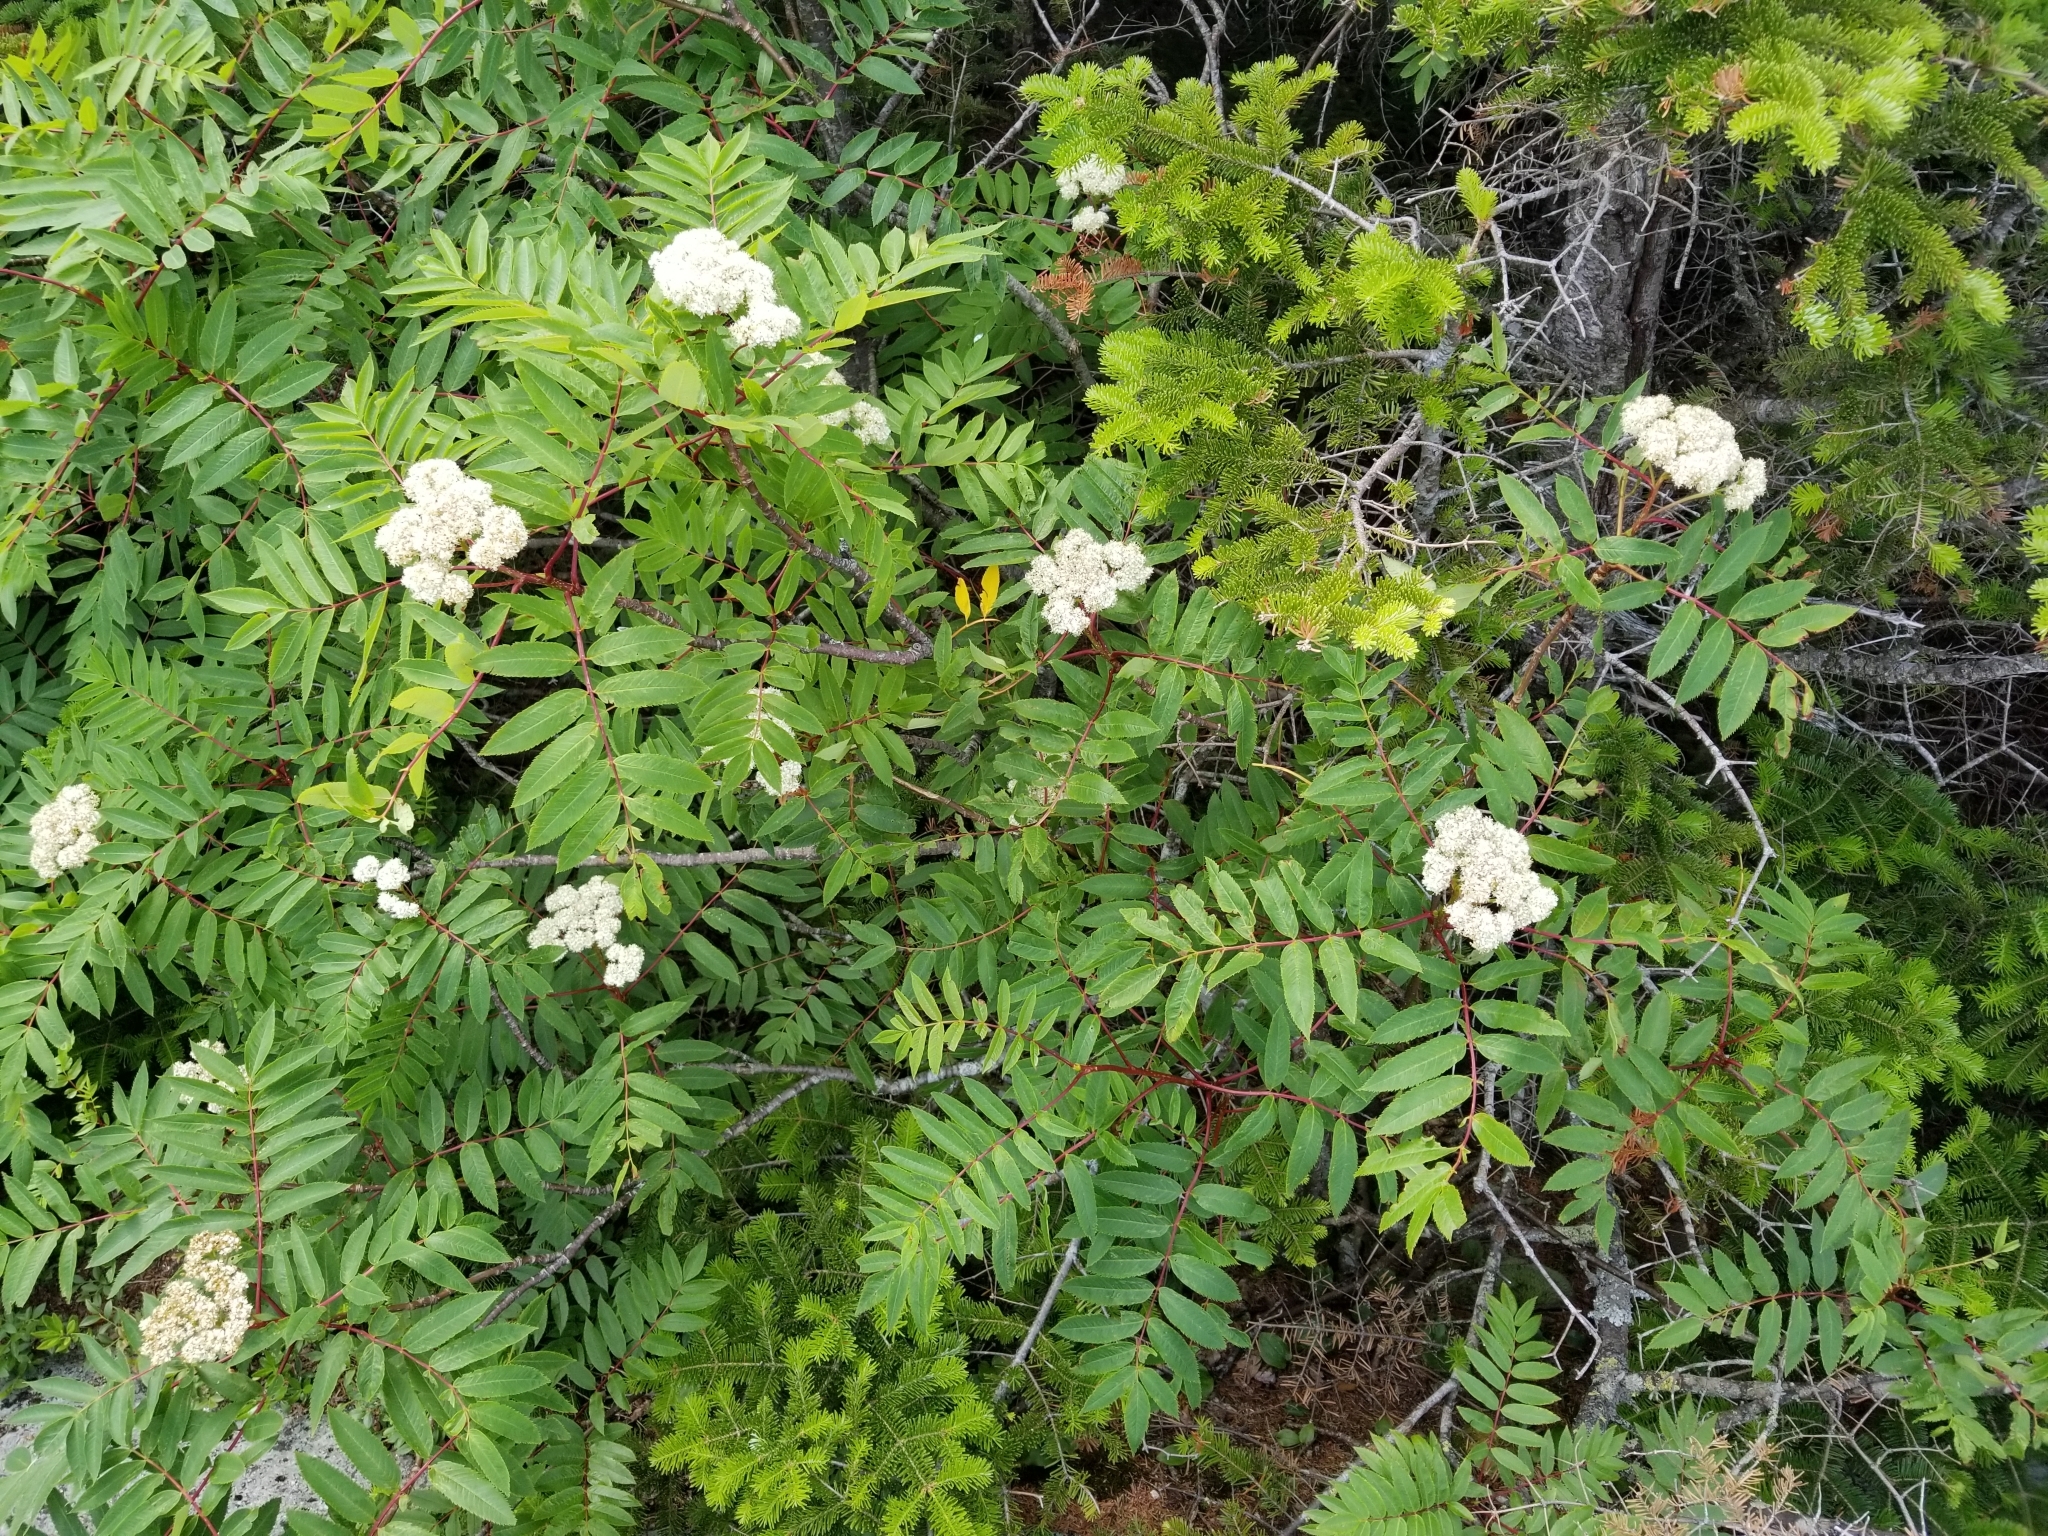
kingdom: Plantae
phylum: Tracheophyta
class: Magnoliopsida
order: Rosales
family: Rosaceae
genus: Sorbus
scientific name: Sorbus americana
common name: American mountain-ash
